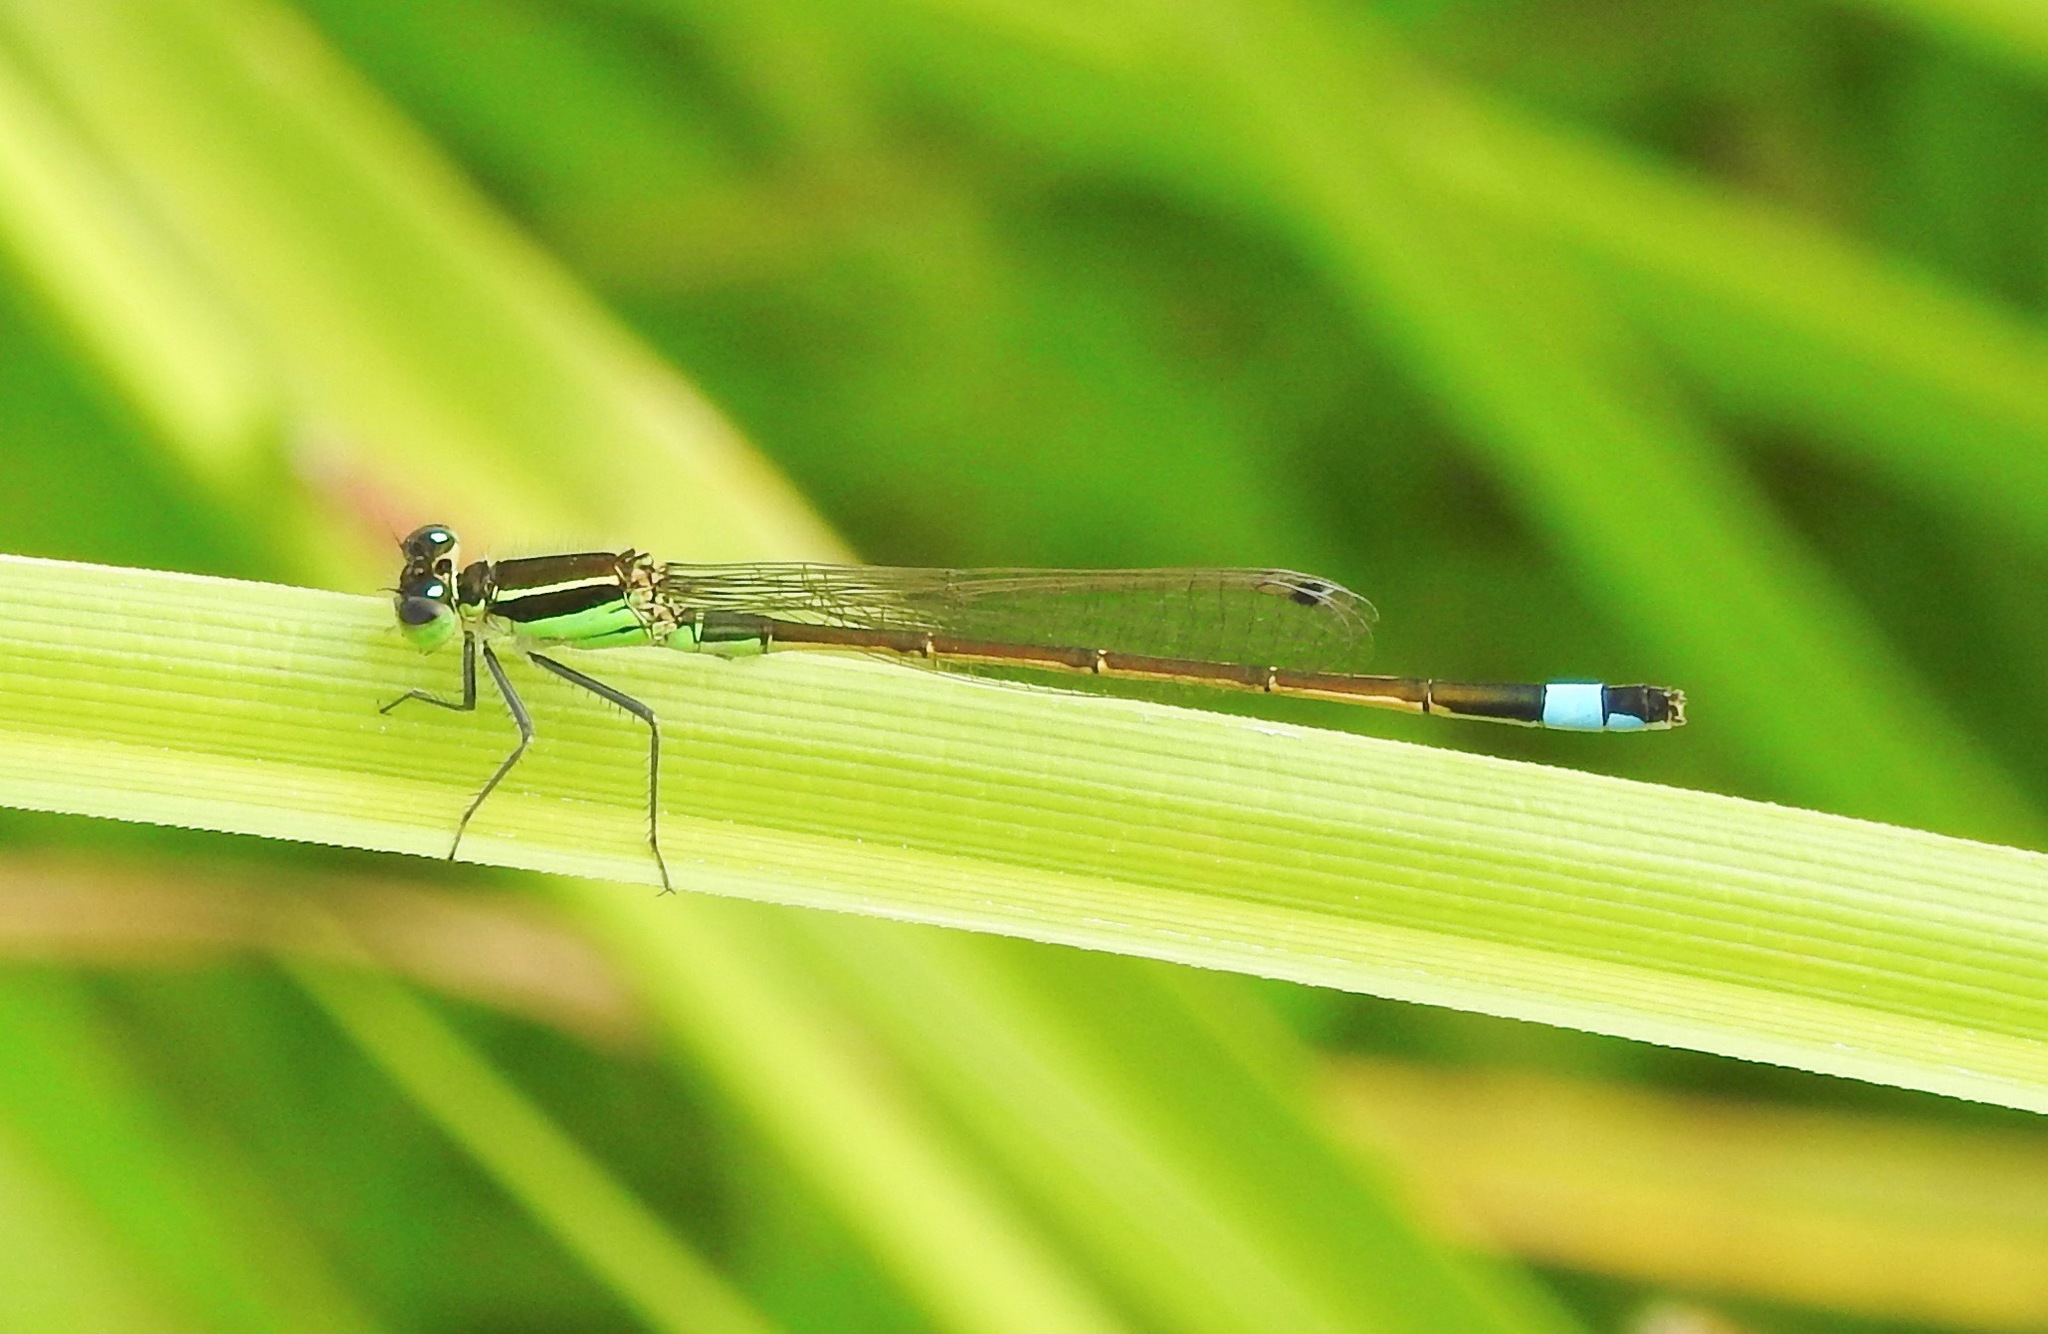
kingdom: Animalia
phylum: Arthropoda
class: Insecta
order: Odonata
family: Coenagrionidae
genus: Ischnura
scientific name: Ischnura ramburii
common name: Rambur's forktail
